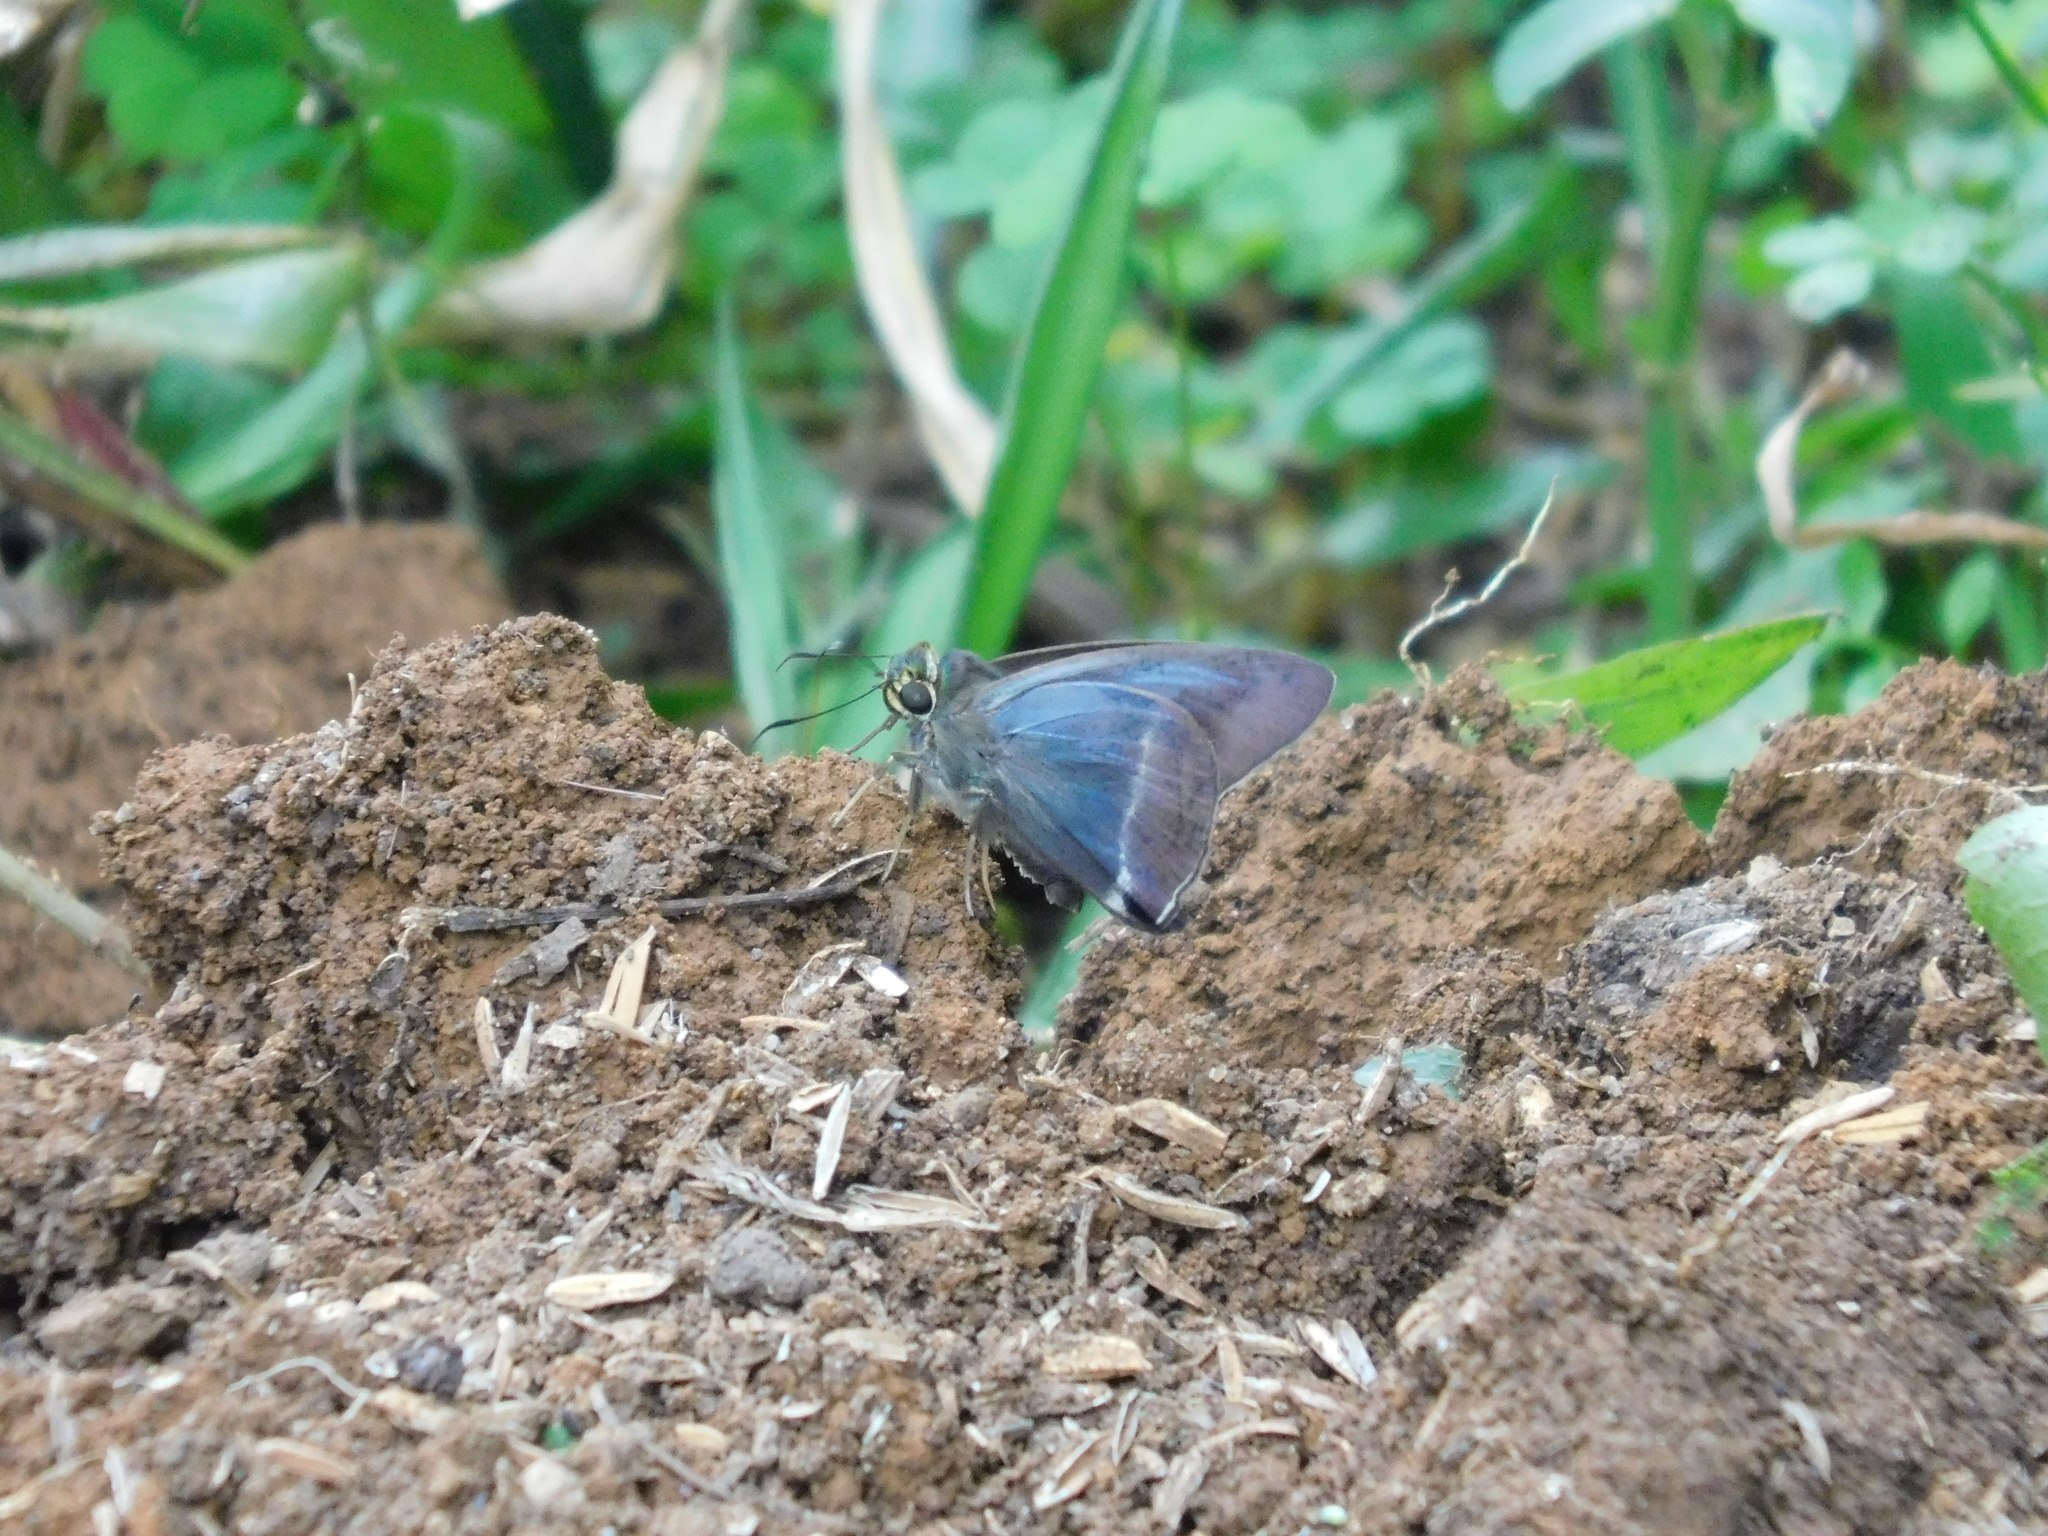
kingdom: Animalia
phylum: Arthropoda
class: Insecta
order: Lepidoptera
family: Hesperiidae
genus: Hasora
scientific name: Hasora taminatus
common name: White banded awl
